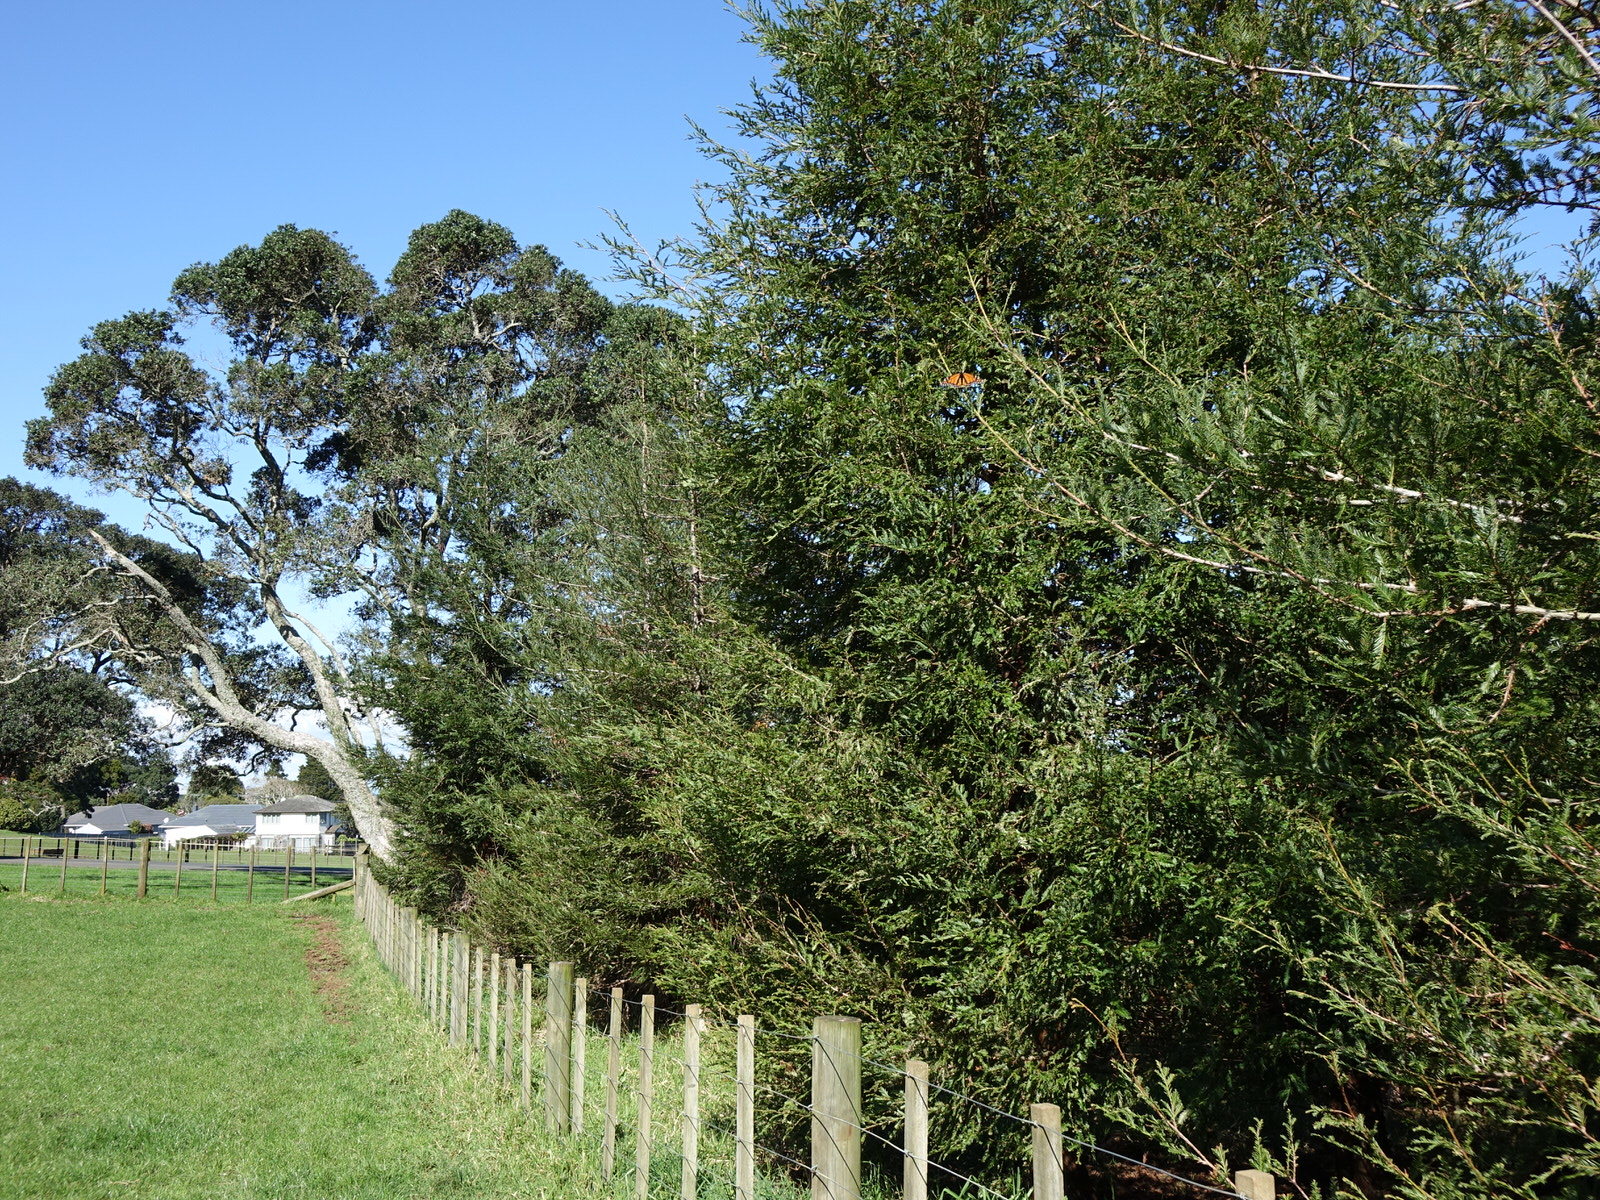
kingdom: Animalia
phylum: Arthropoda
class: Insecta
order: Lepidoptera
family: Nymphalidae
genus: Danaus
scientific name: Danaus plexippus
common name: Monarch
